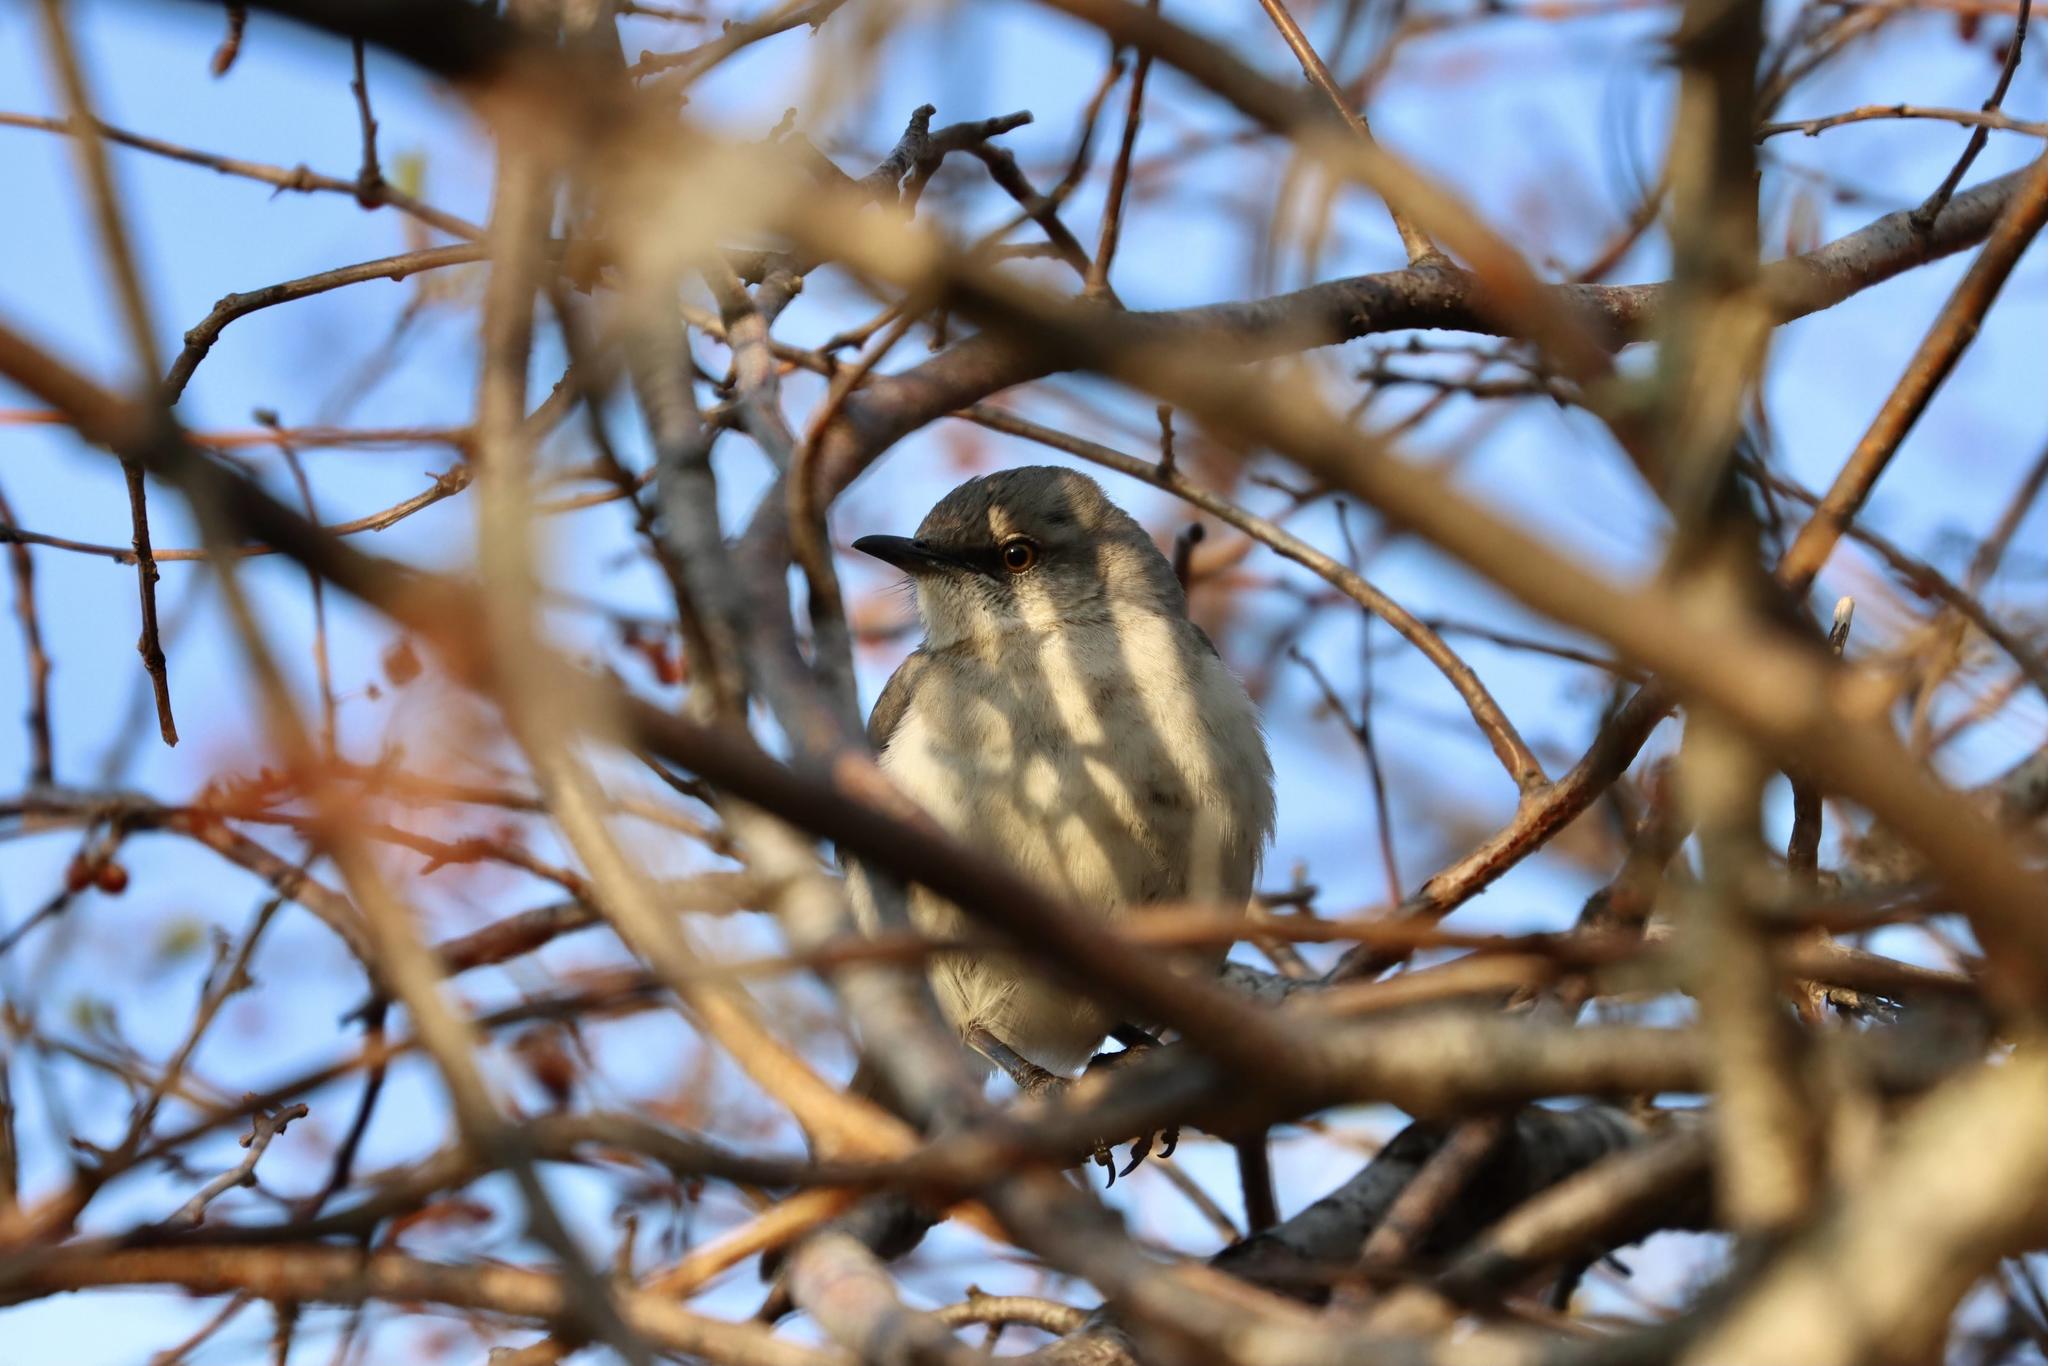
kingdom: Animalia
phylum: Chordata
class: Aves
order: Passeriformes
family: Mimidae
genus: Mimus
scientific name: Mimus polyglottos
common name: Northern mockingbird
